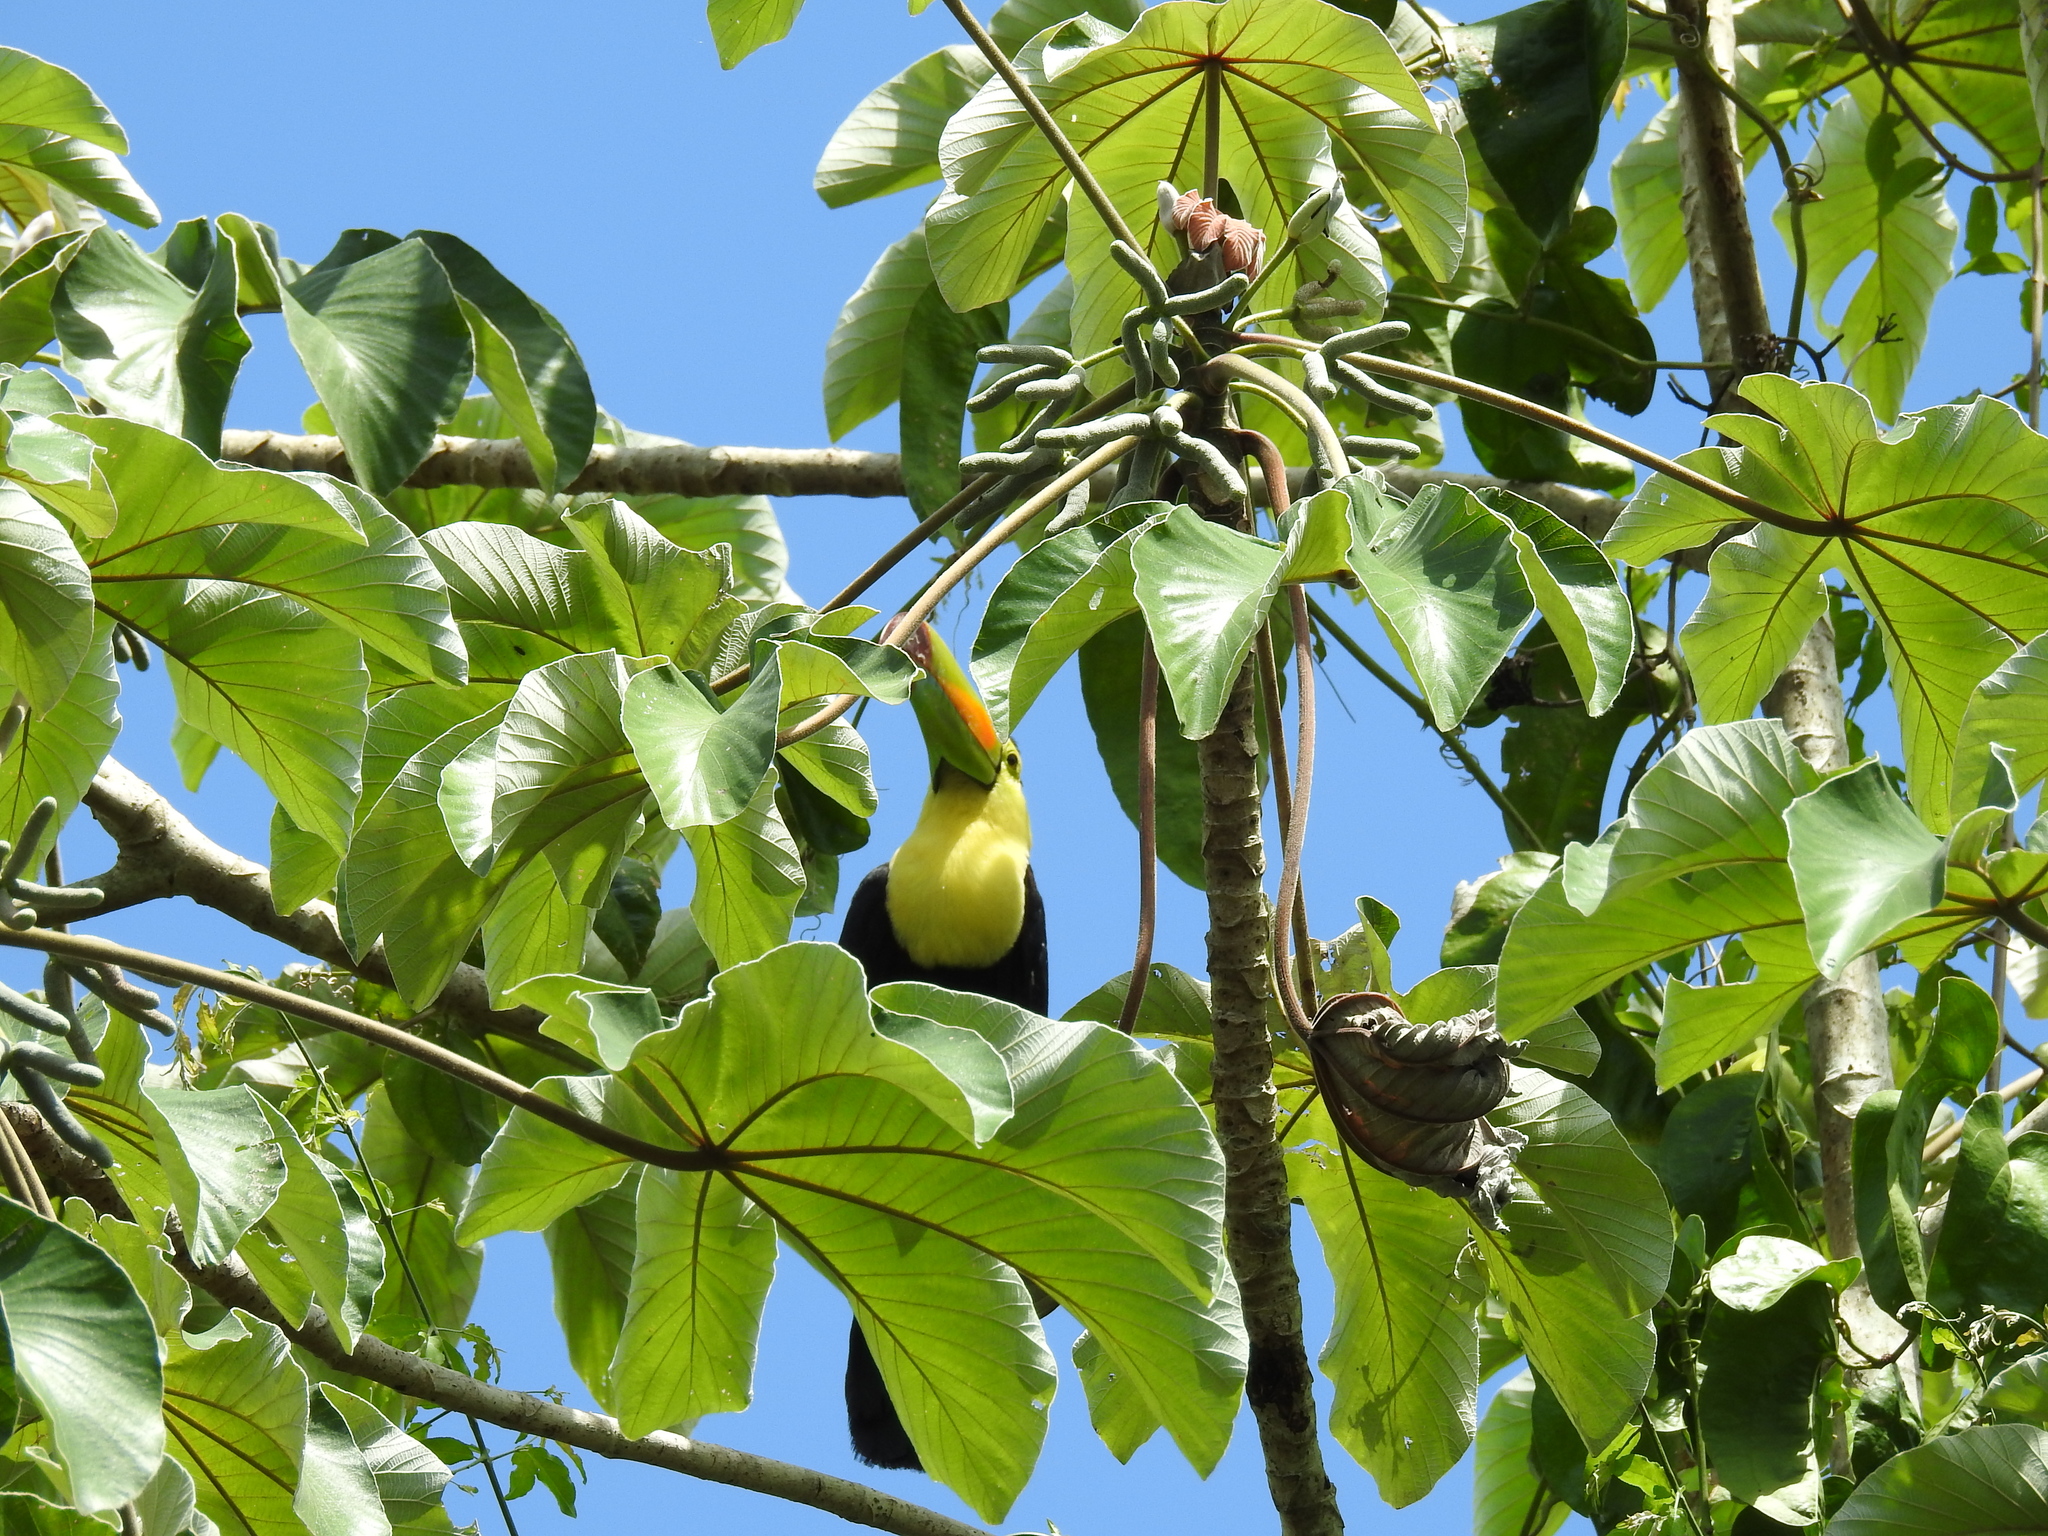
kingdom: Animalia
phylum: Chordata
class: Aves
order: Piciformes
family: Ramphastidae
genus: Ramphastos
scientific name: Ramphastos sulfuratus
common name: Keel-billed toucan
